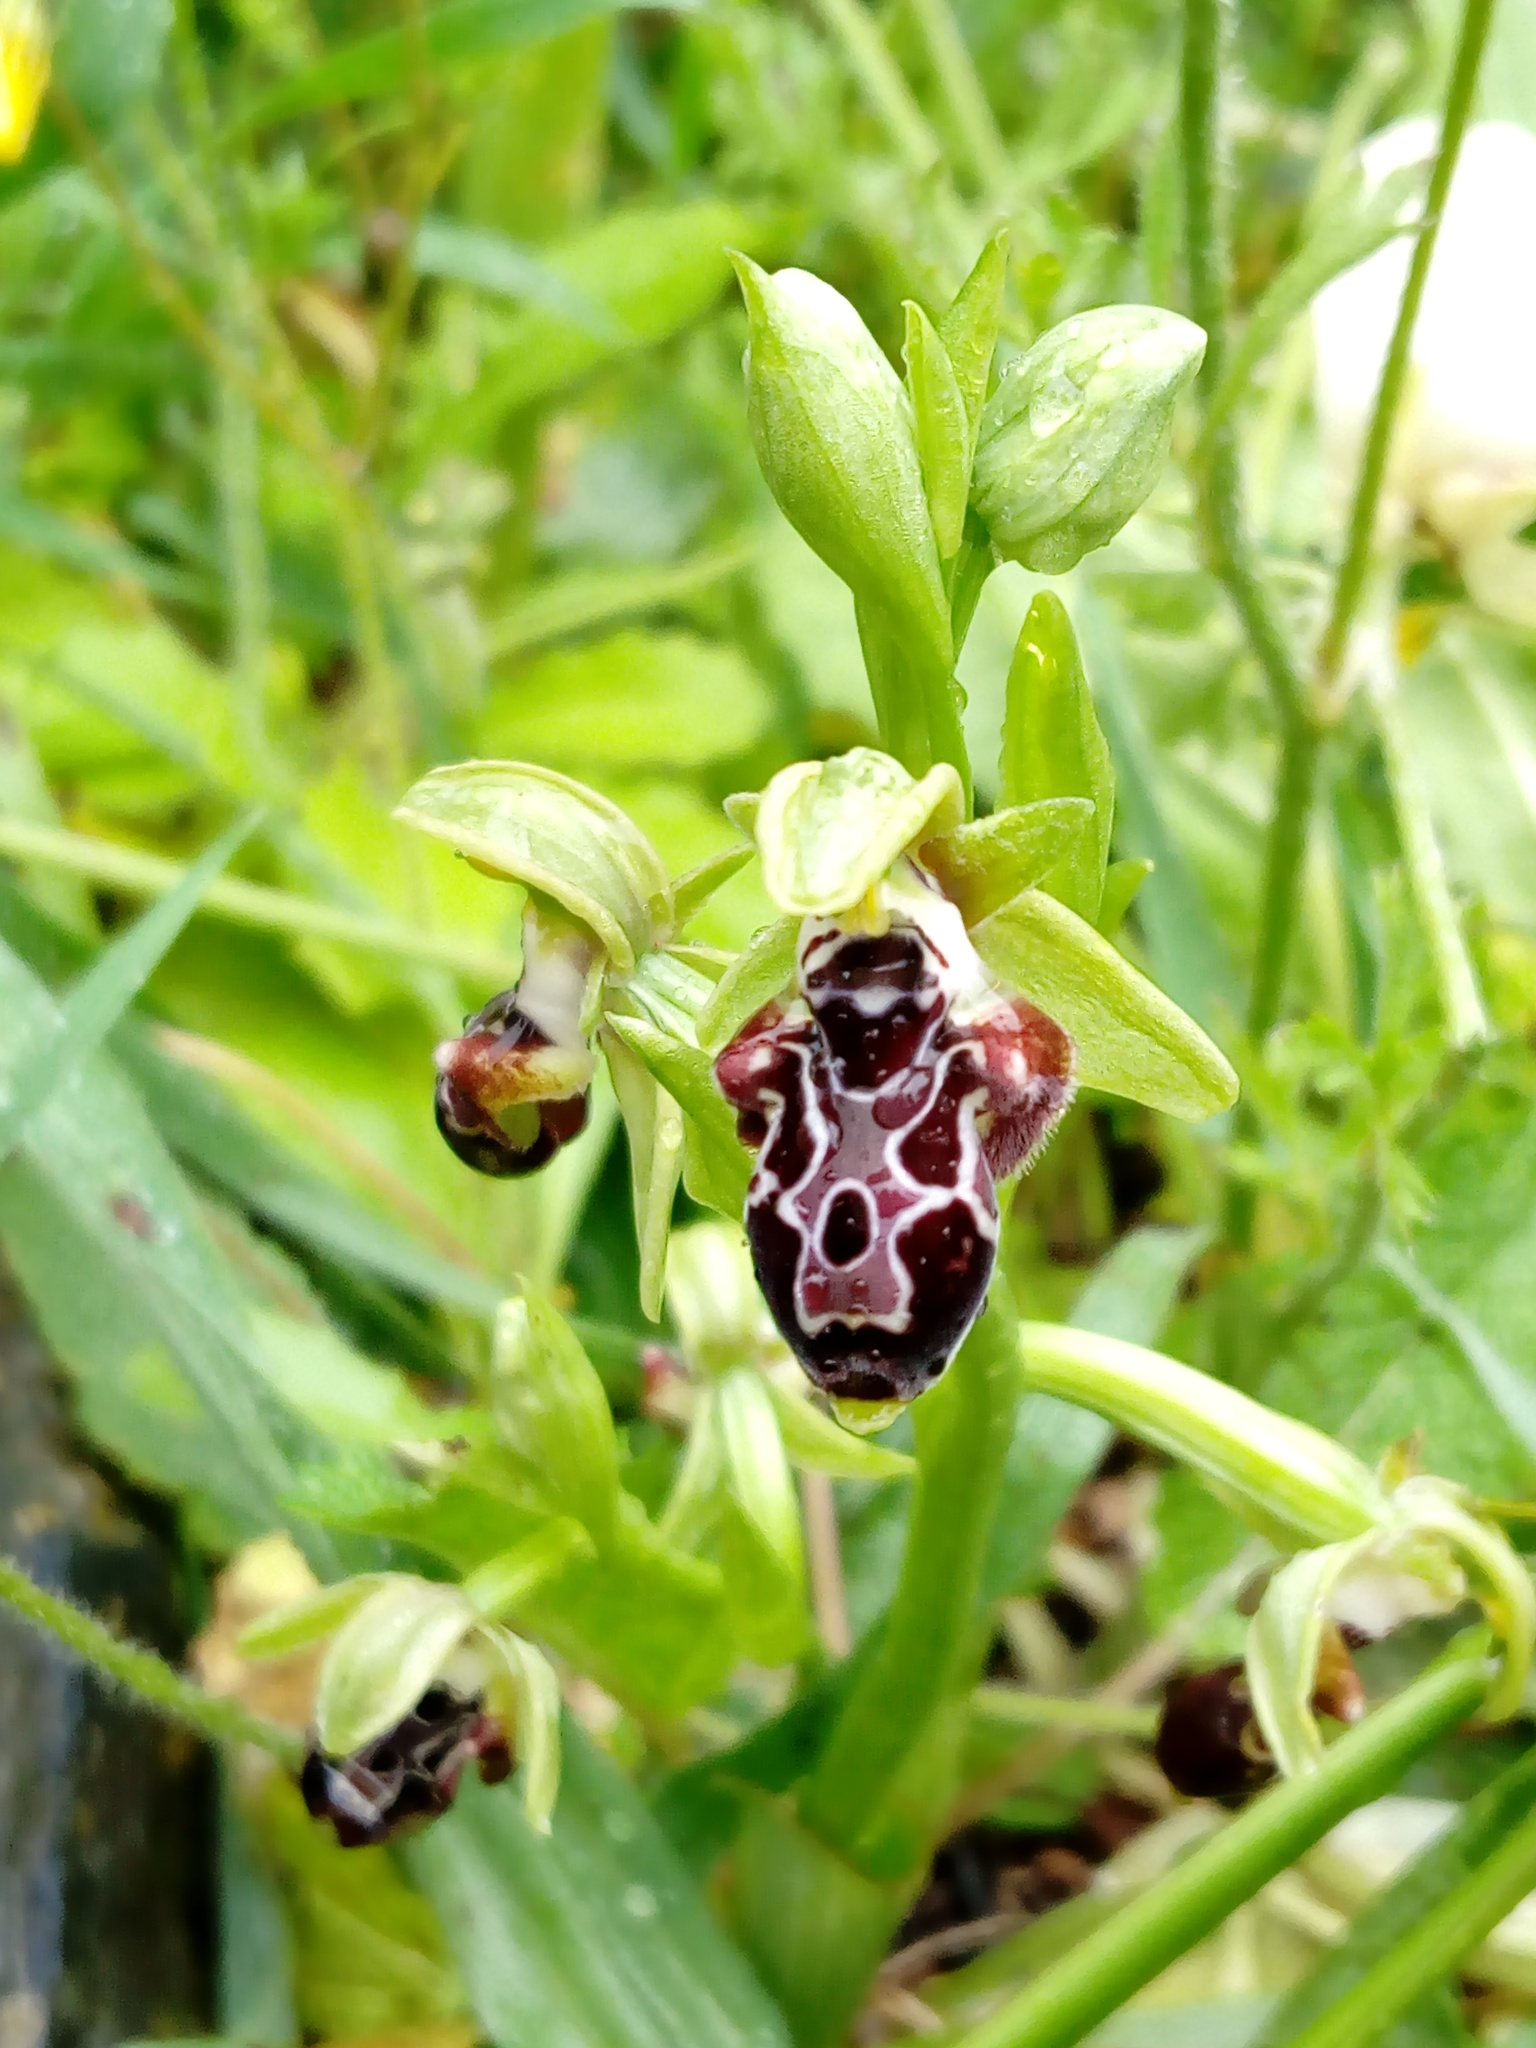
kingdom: Plantae
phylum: Tracheophyta
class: Liliopsida
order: Asparagales
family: Orchidaceae
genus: Ophrys
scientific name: Ophrys kotschyi
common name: Kotschy's ophrys
